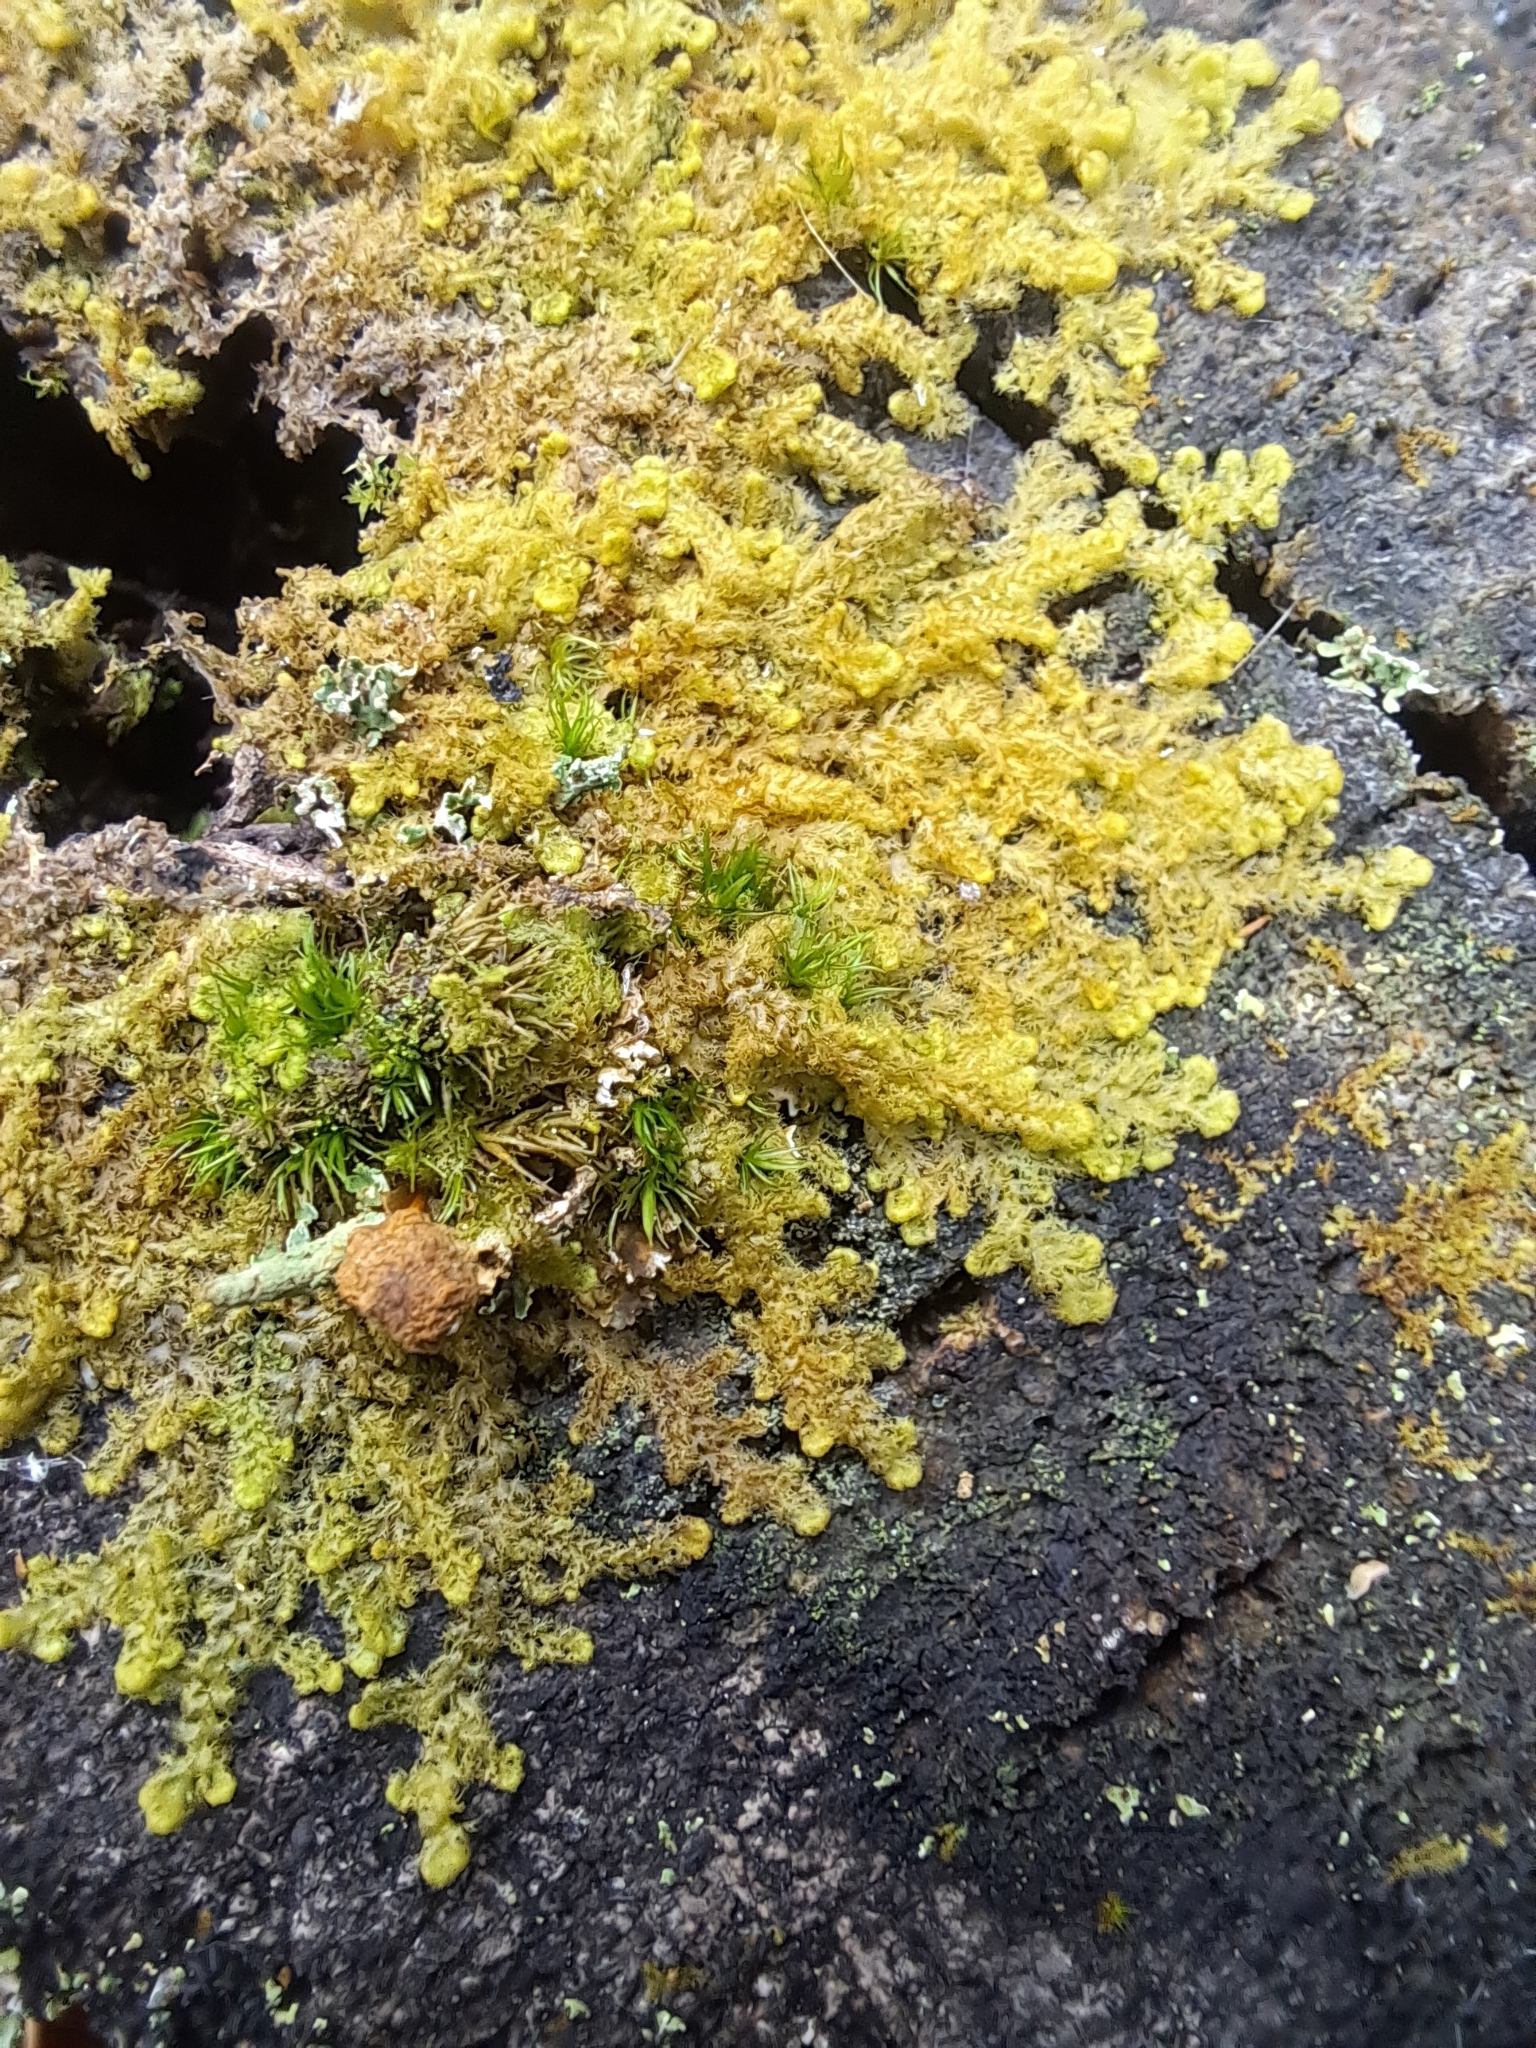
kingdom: Plantae
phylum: Marchantiophyta
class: Jungermanniopsida
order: Ptilidiales
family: Ptilidiaceae
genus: Ptilidium
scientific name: Ptilidium pulcherrimum
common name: Tree fringewort
